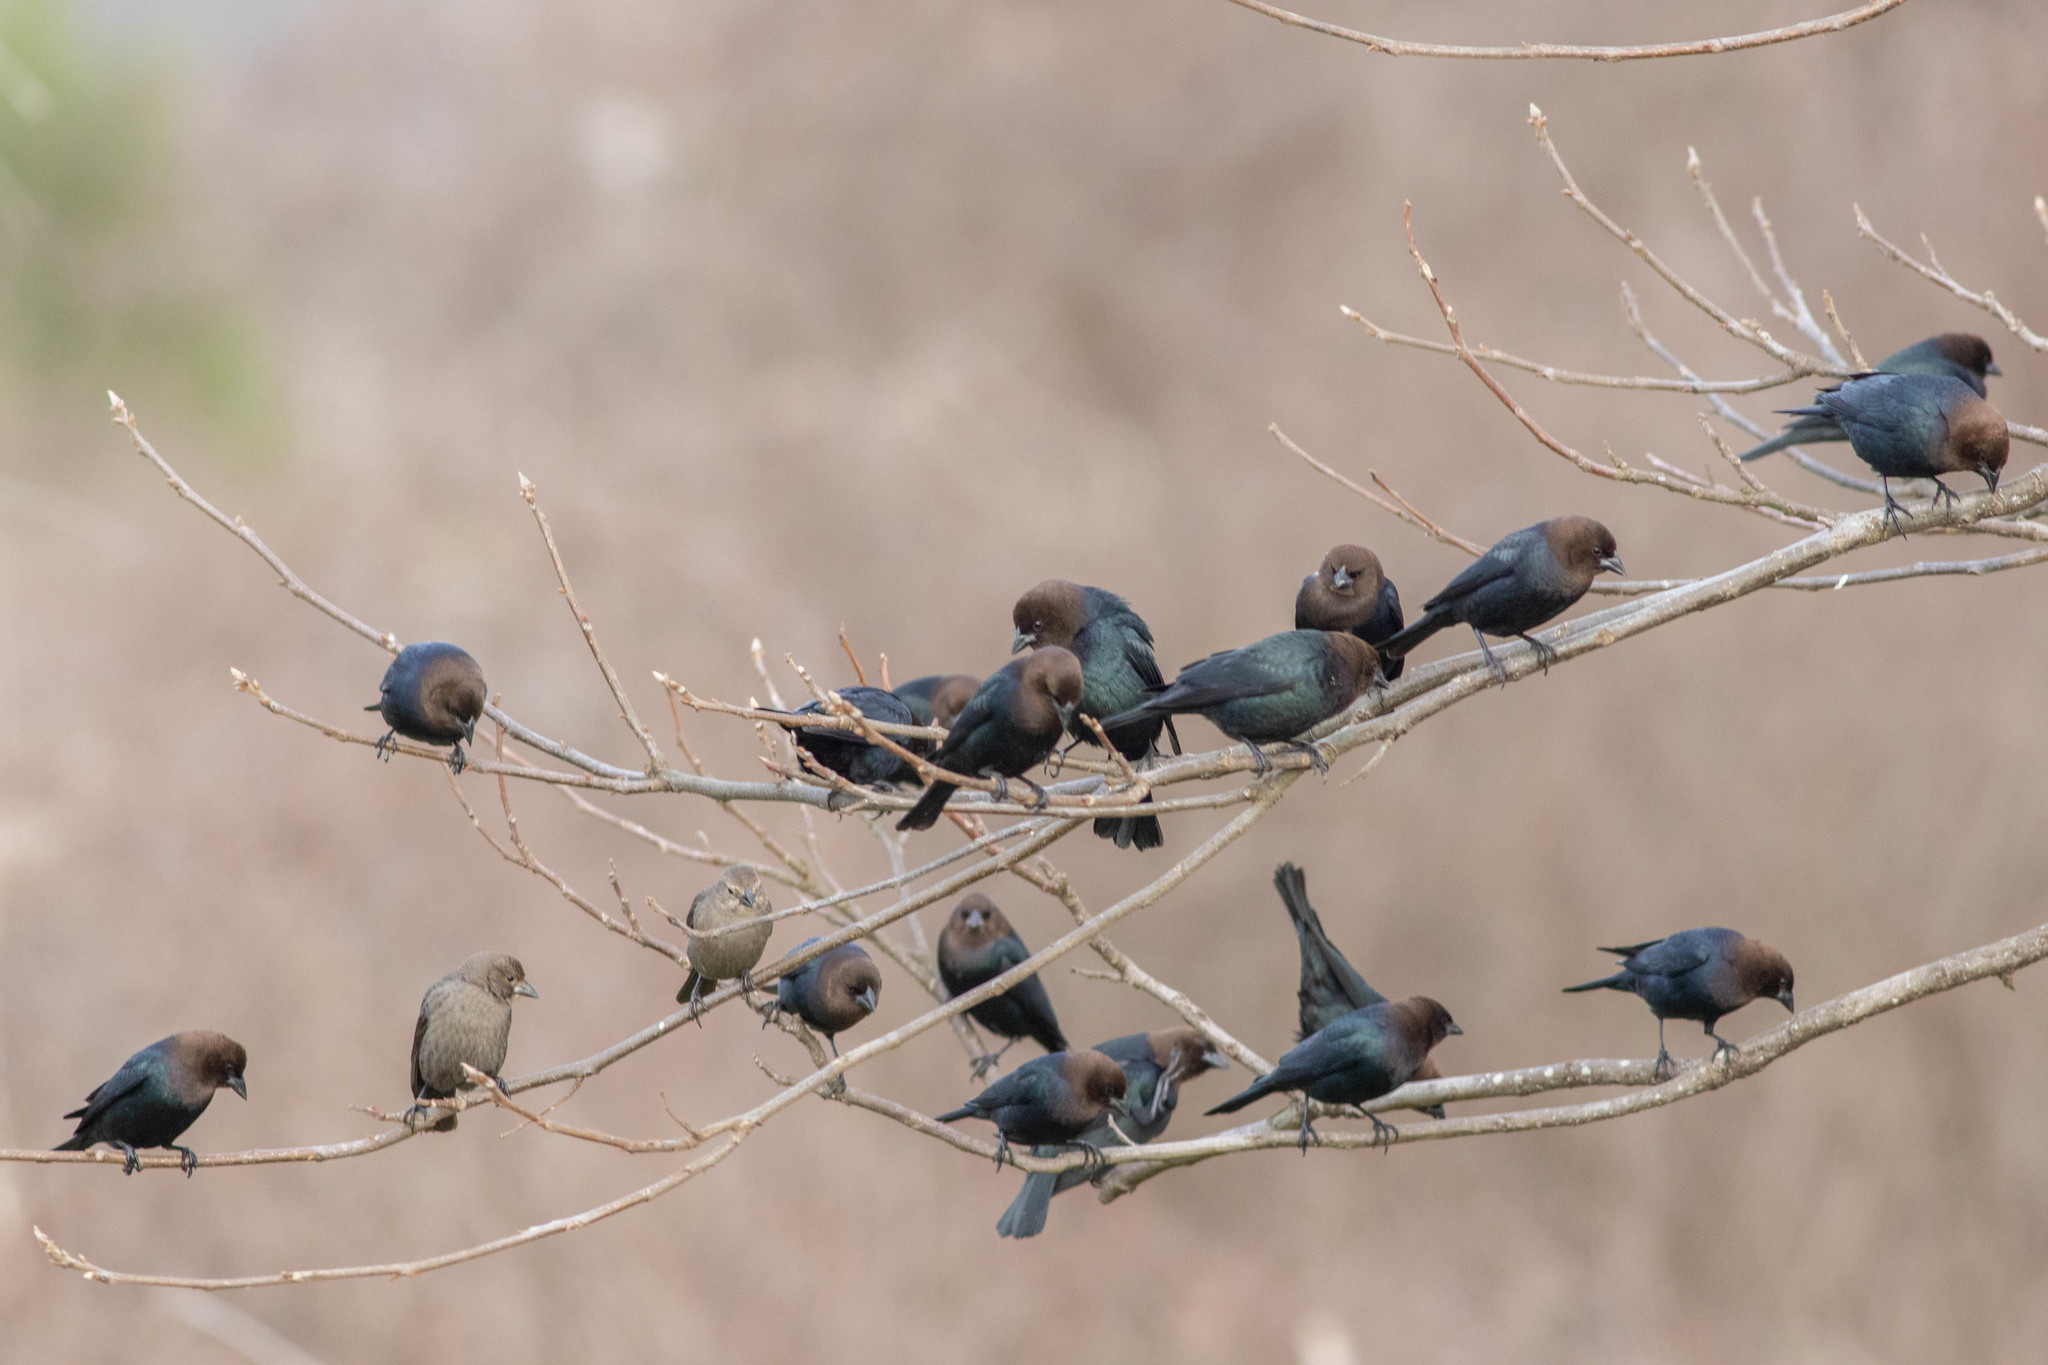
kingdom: Animalia
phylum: Chordata
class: Aves
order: Passeriformes
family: Icteridae
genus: Molothrus
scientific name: Molothrus ater
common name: Brown-headed cowbird
